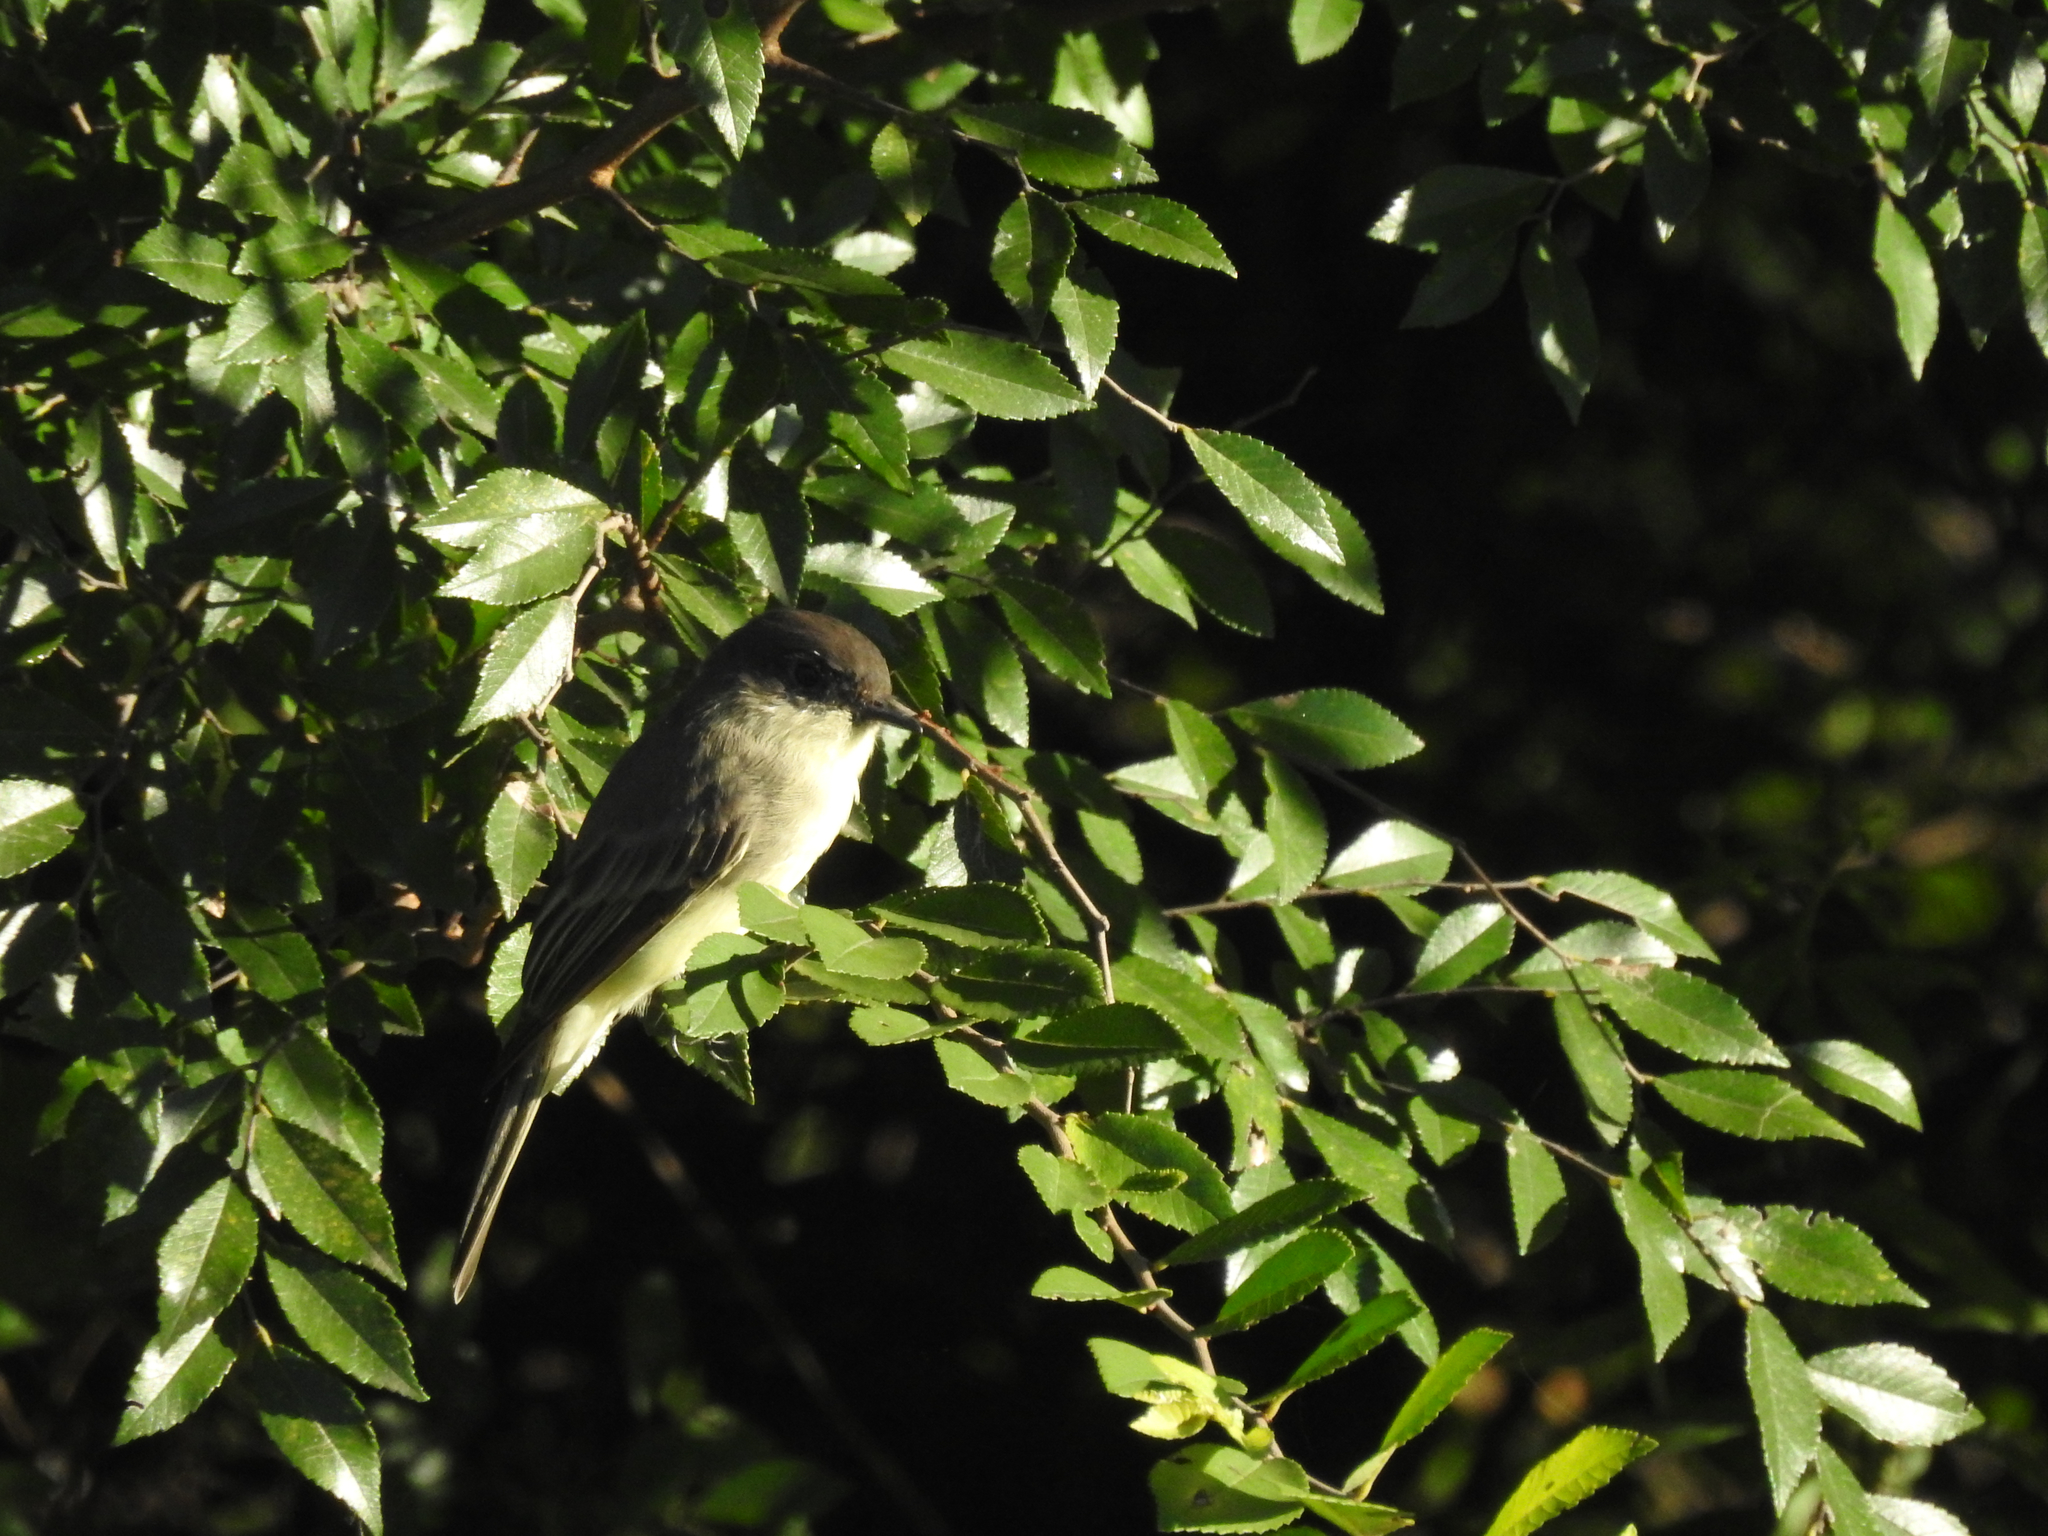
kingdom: Animalia
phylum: Chordata
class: Aves
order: Passeriformes
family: Tyrannidae
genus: Sayornis
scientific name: Sayornis phoebe
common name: Eastern phoebe
